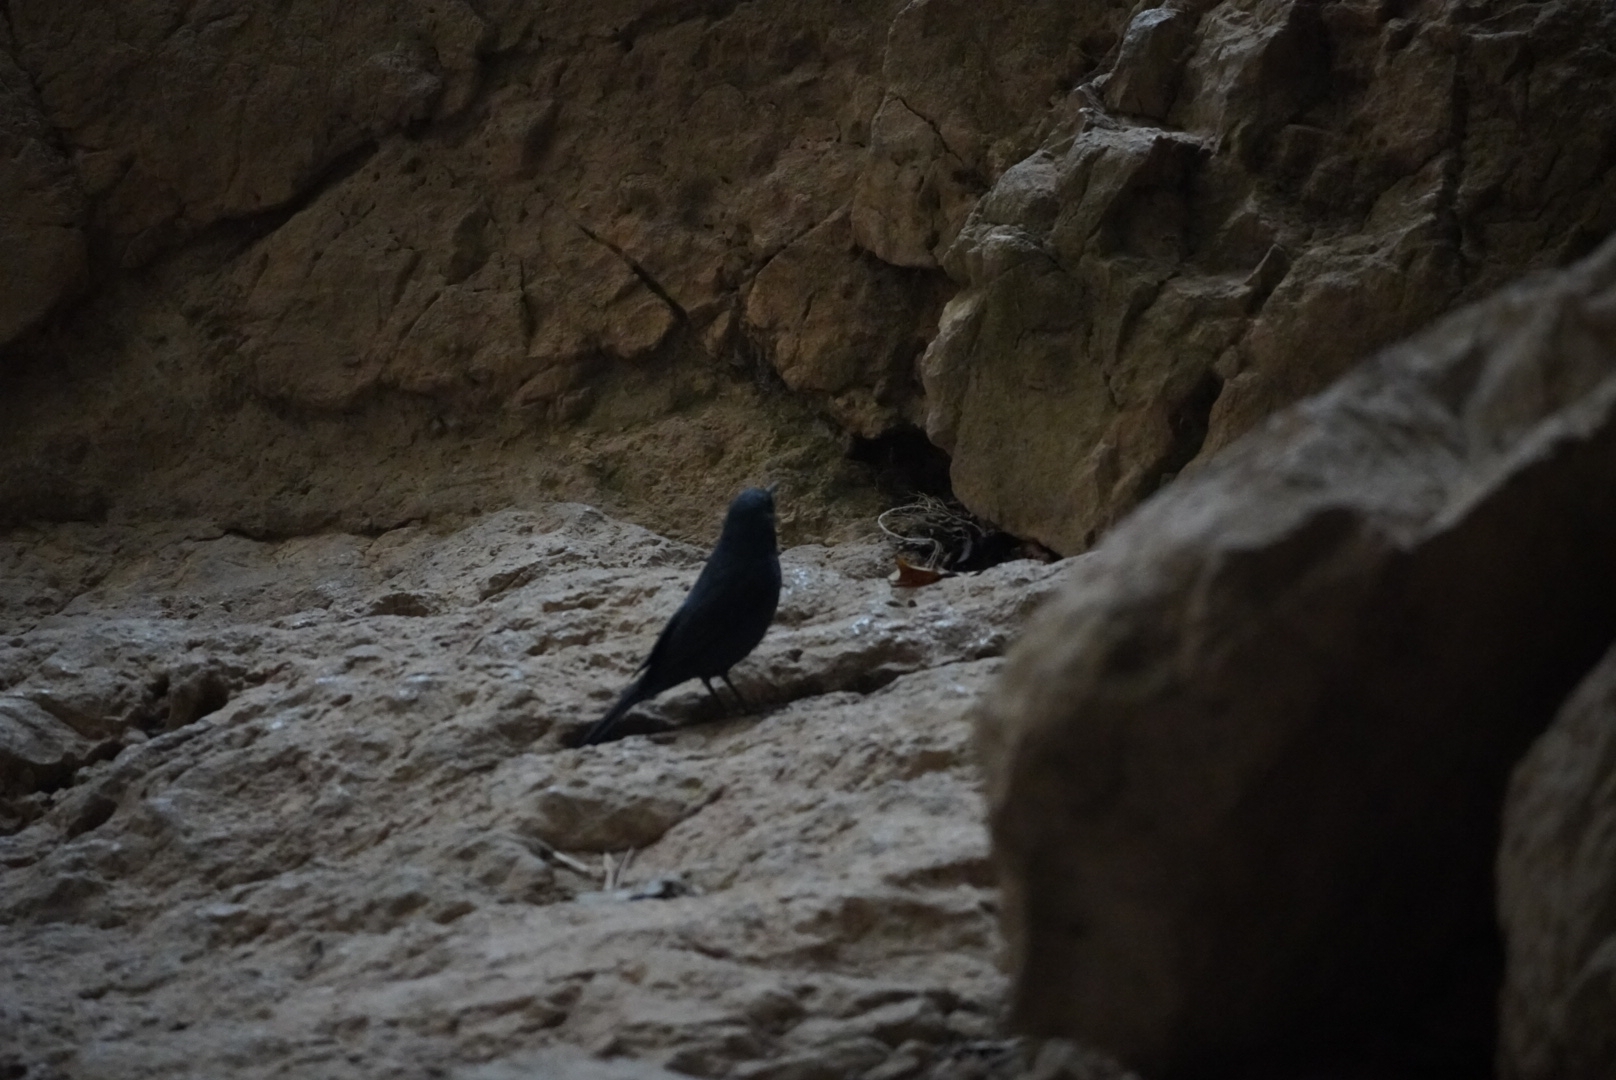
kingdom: Animalia
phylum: Chordata
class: Aves
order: Passeriformes
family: Muscicapidae
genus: Monticola
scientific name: Monticola solitarius
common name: Blue rock thrush
